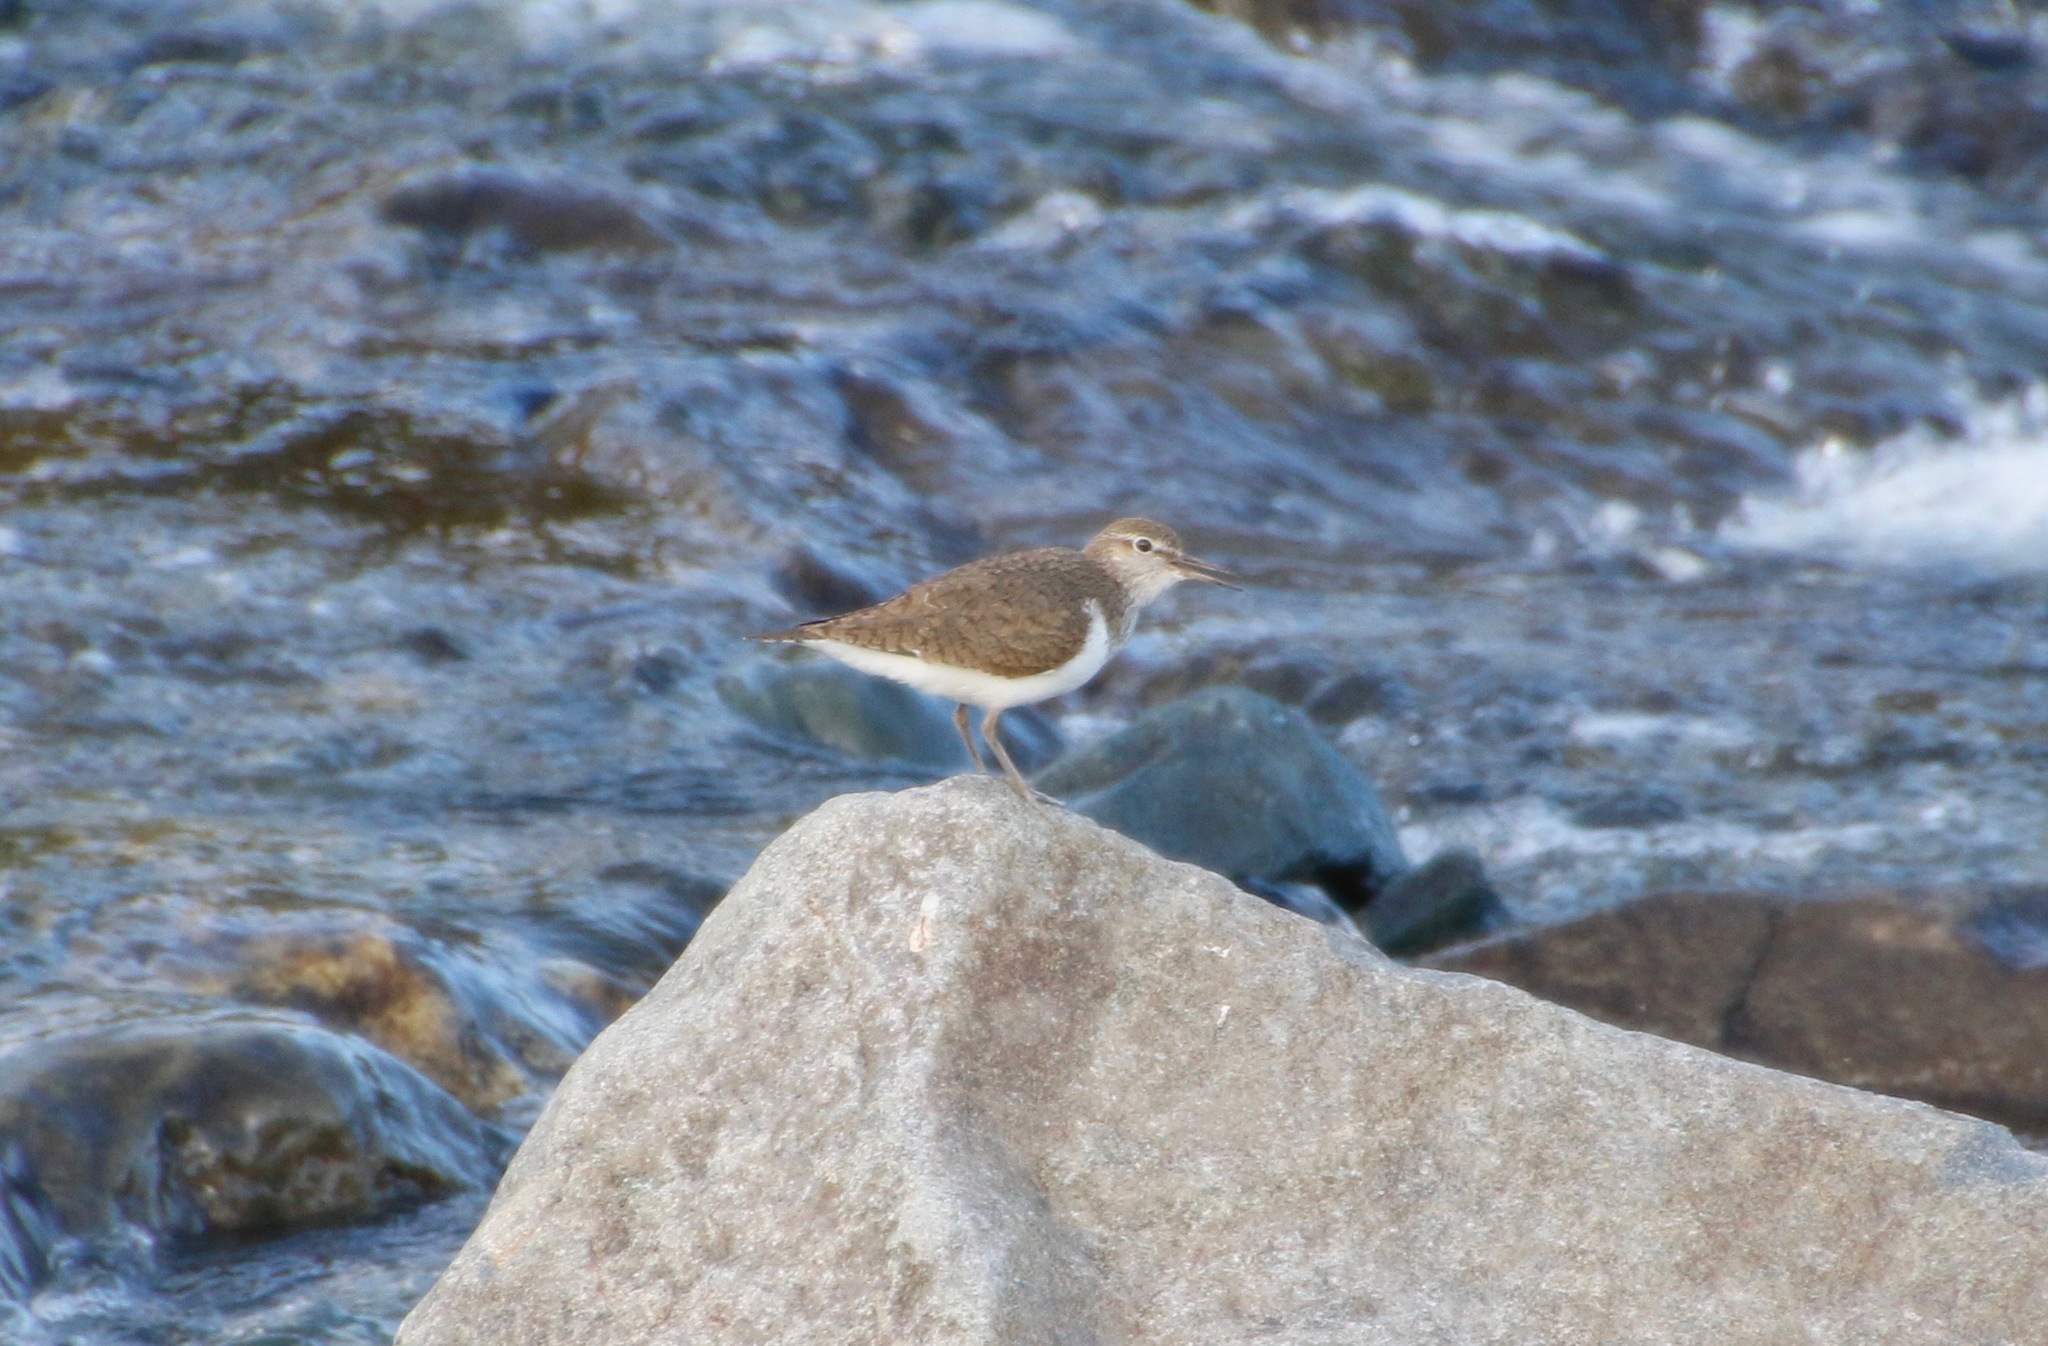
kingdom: Animalia
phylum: Chordata
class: Aves
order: Charadriiformes
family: Scolopacidae
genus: Actitis
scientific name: Actitis hypoleucos
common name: Common sandpiper
